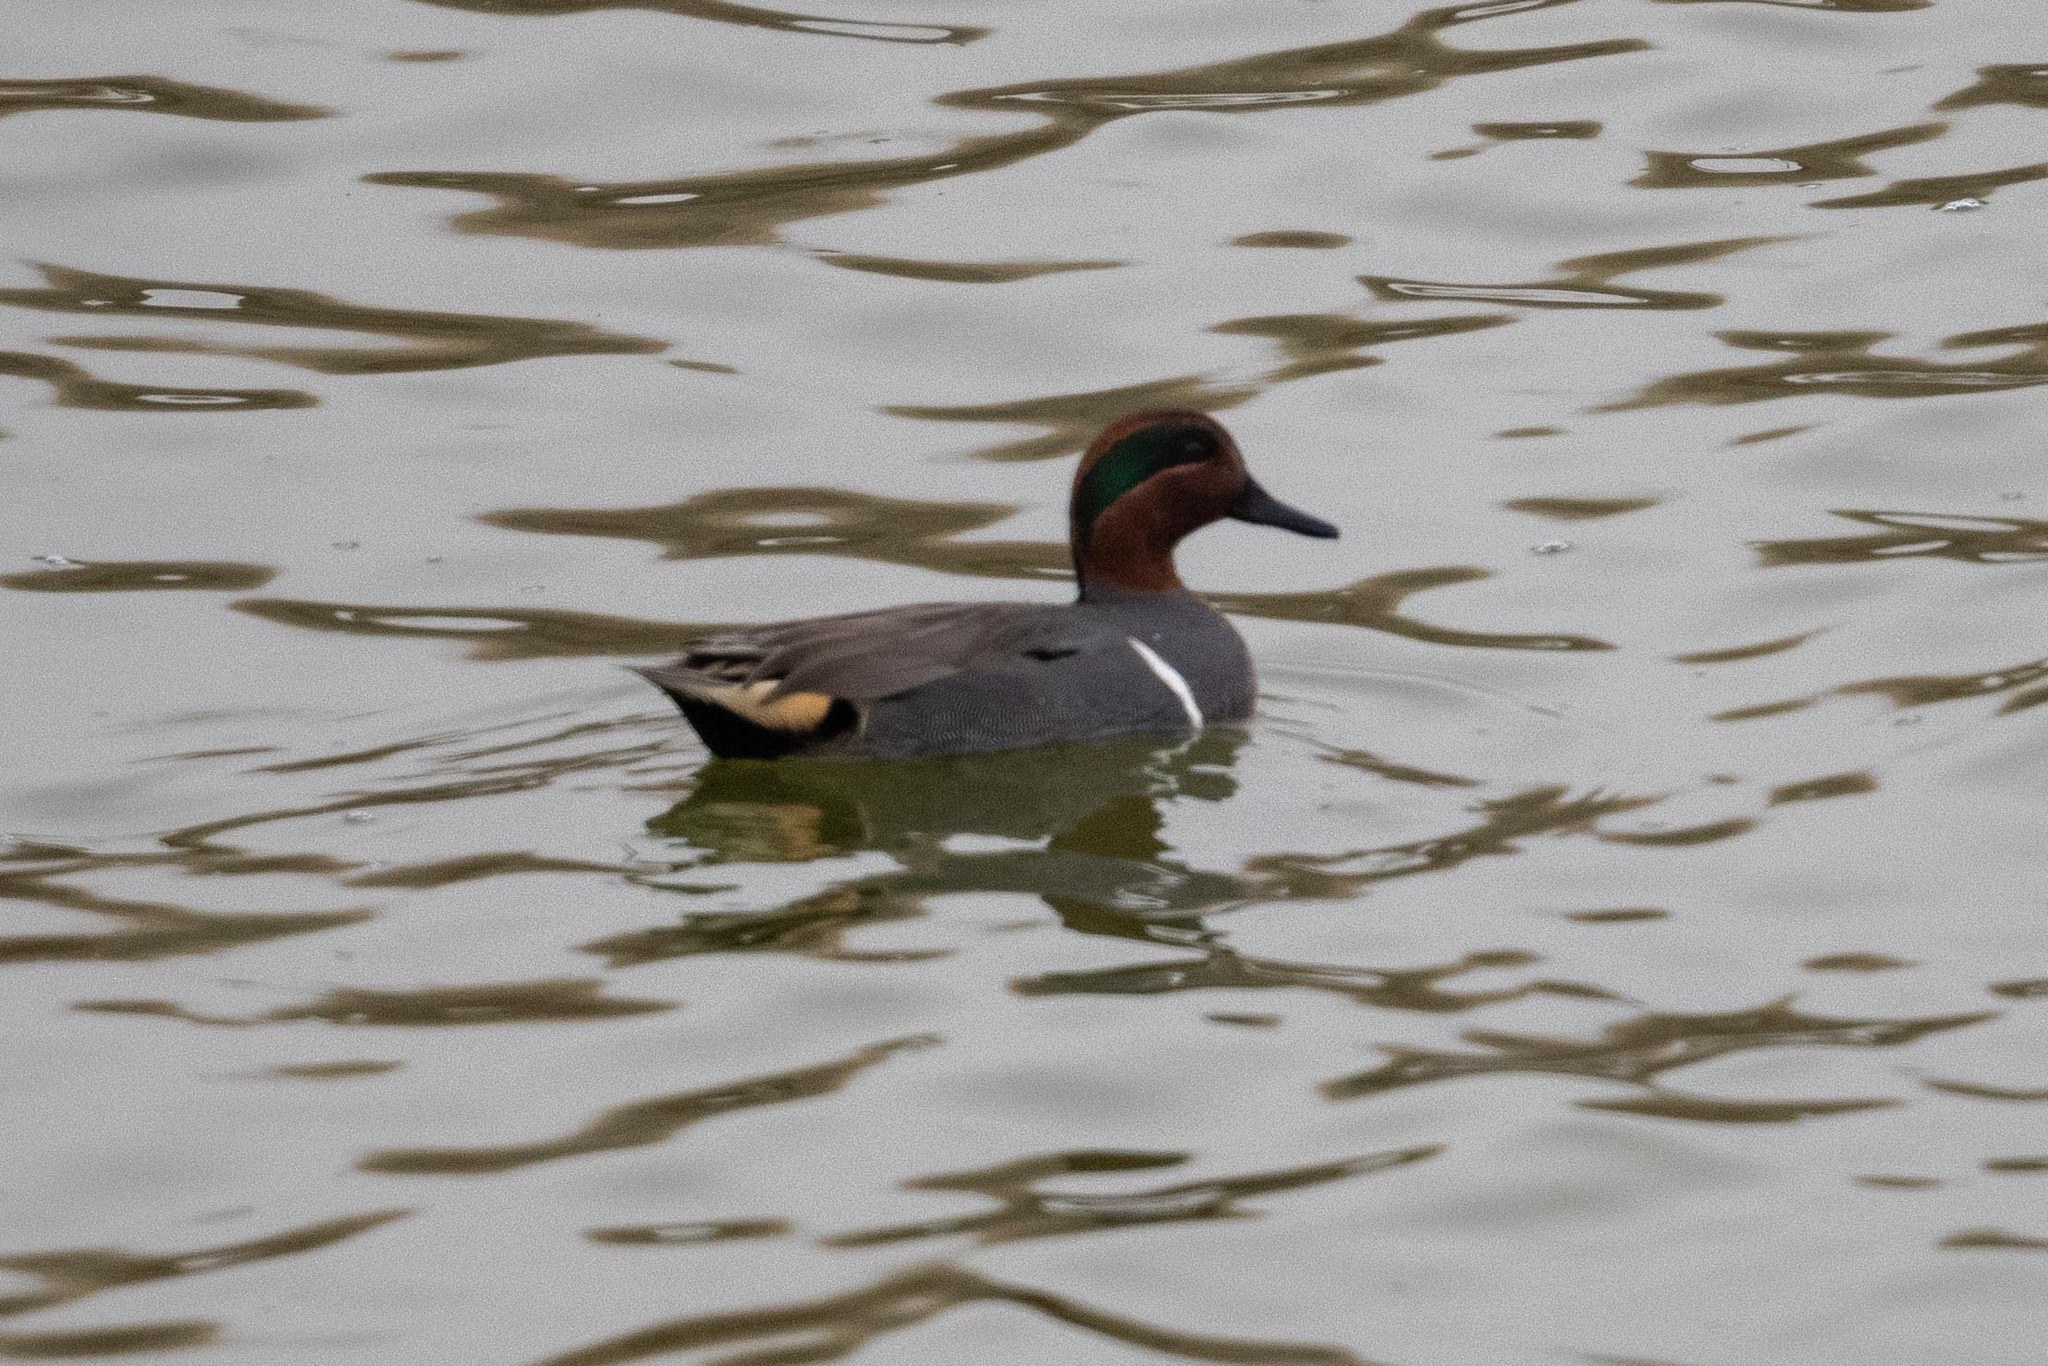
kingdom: Animalia
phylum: Chordata
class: Aves
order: Anseriformes
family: Anatidae
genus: Anas
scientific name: Anas crecca
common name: Eurasian teal
